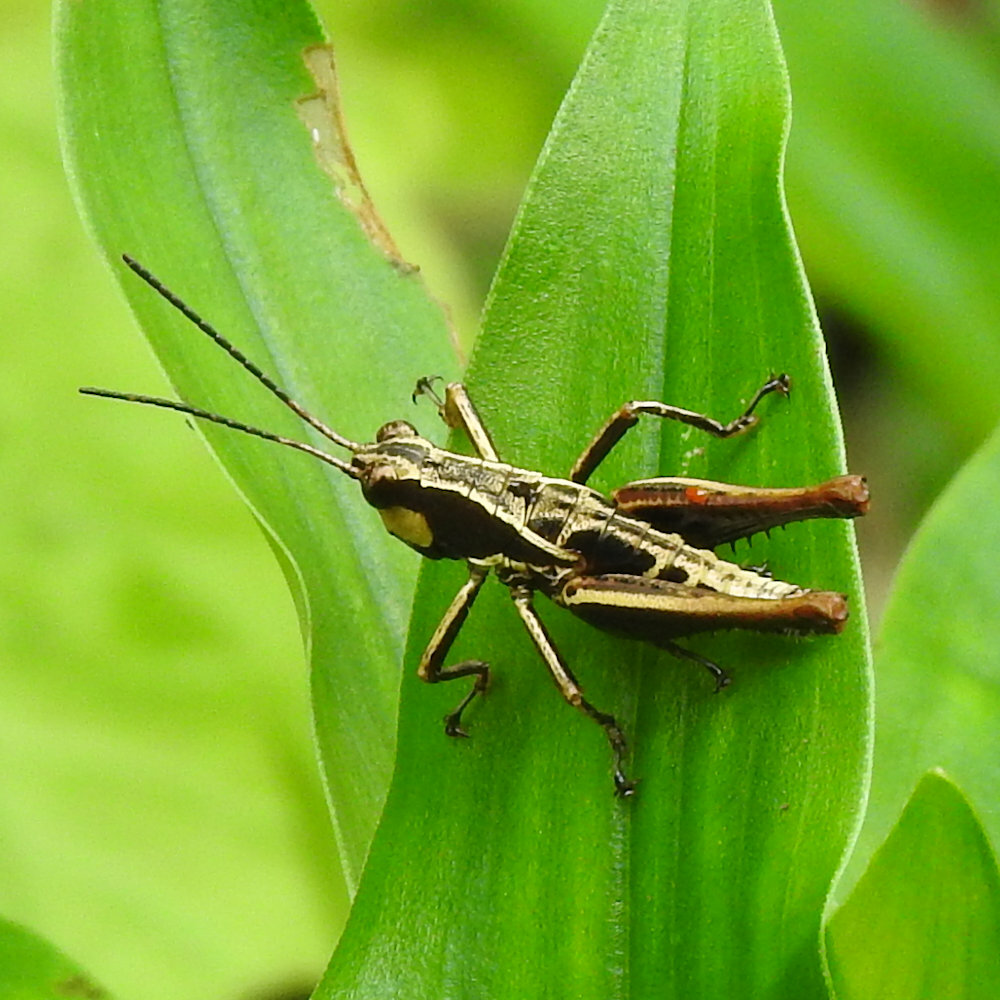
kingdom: Animalia
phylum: Arthropoda
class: Insecta
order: Orthoptera
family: Acrididae
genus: Microtylopteryx
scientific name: Microtylopteryx hebardi
